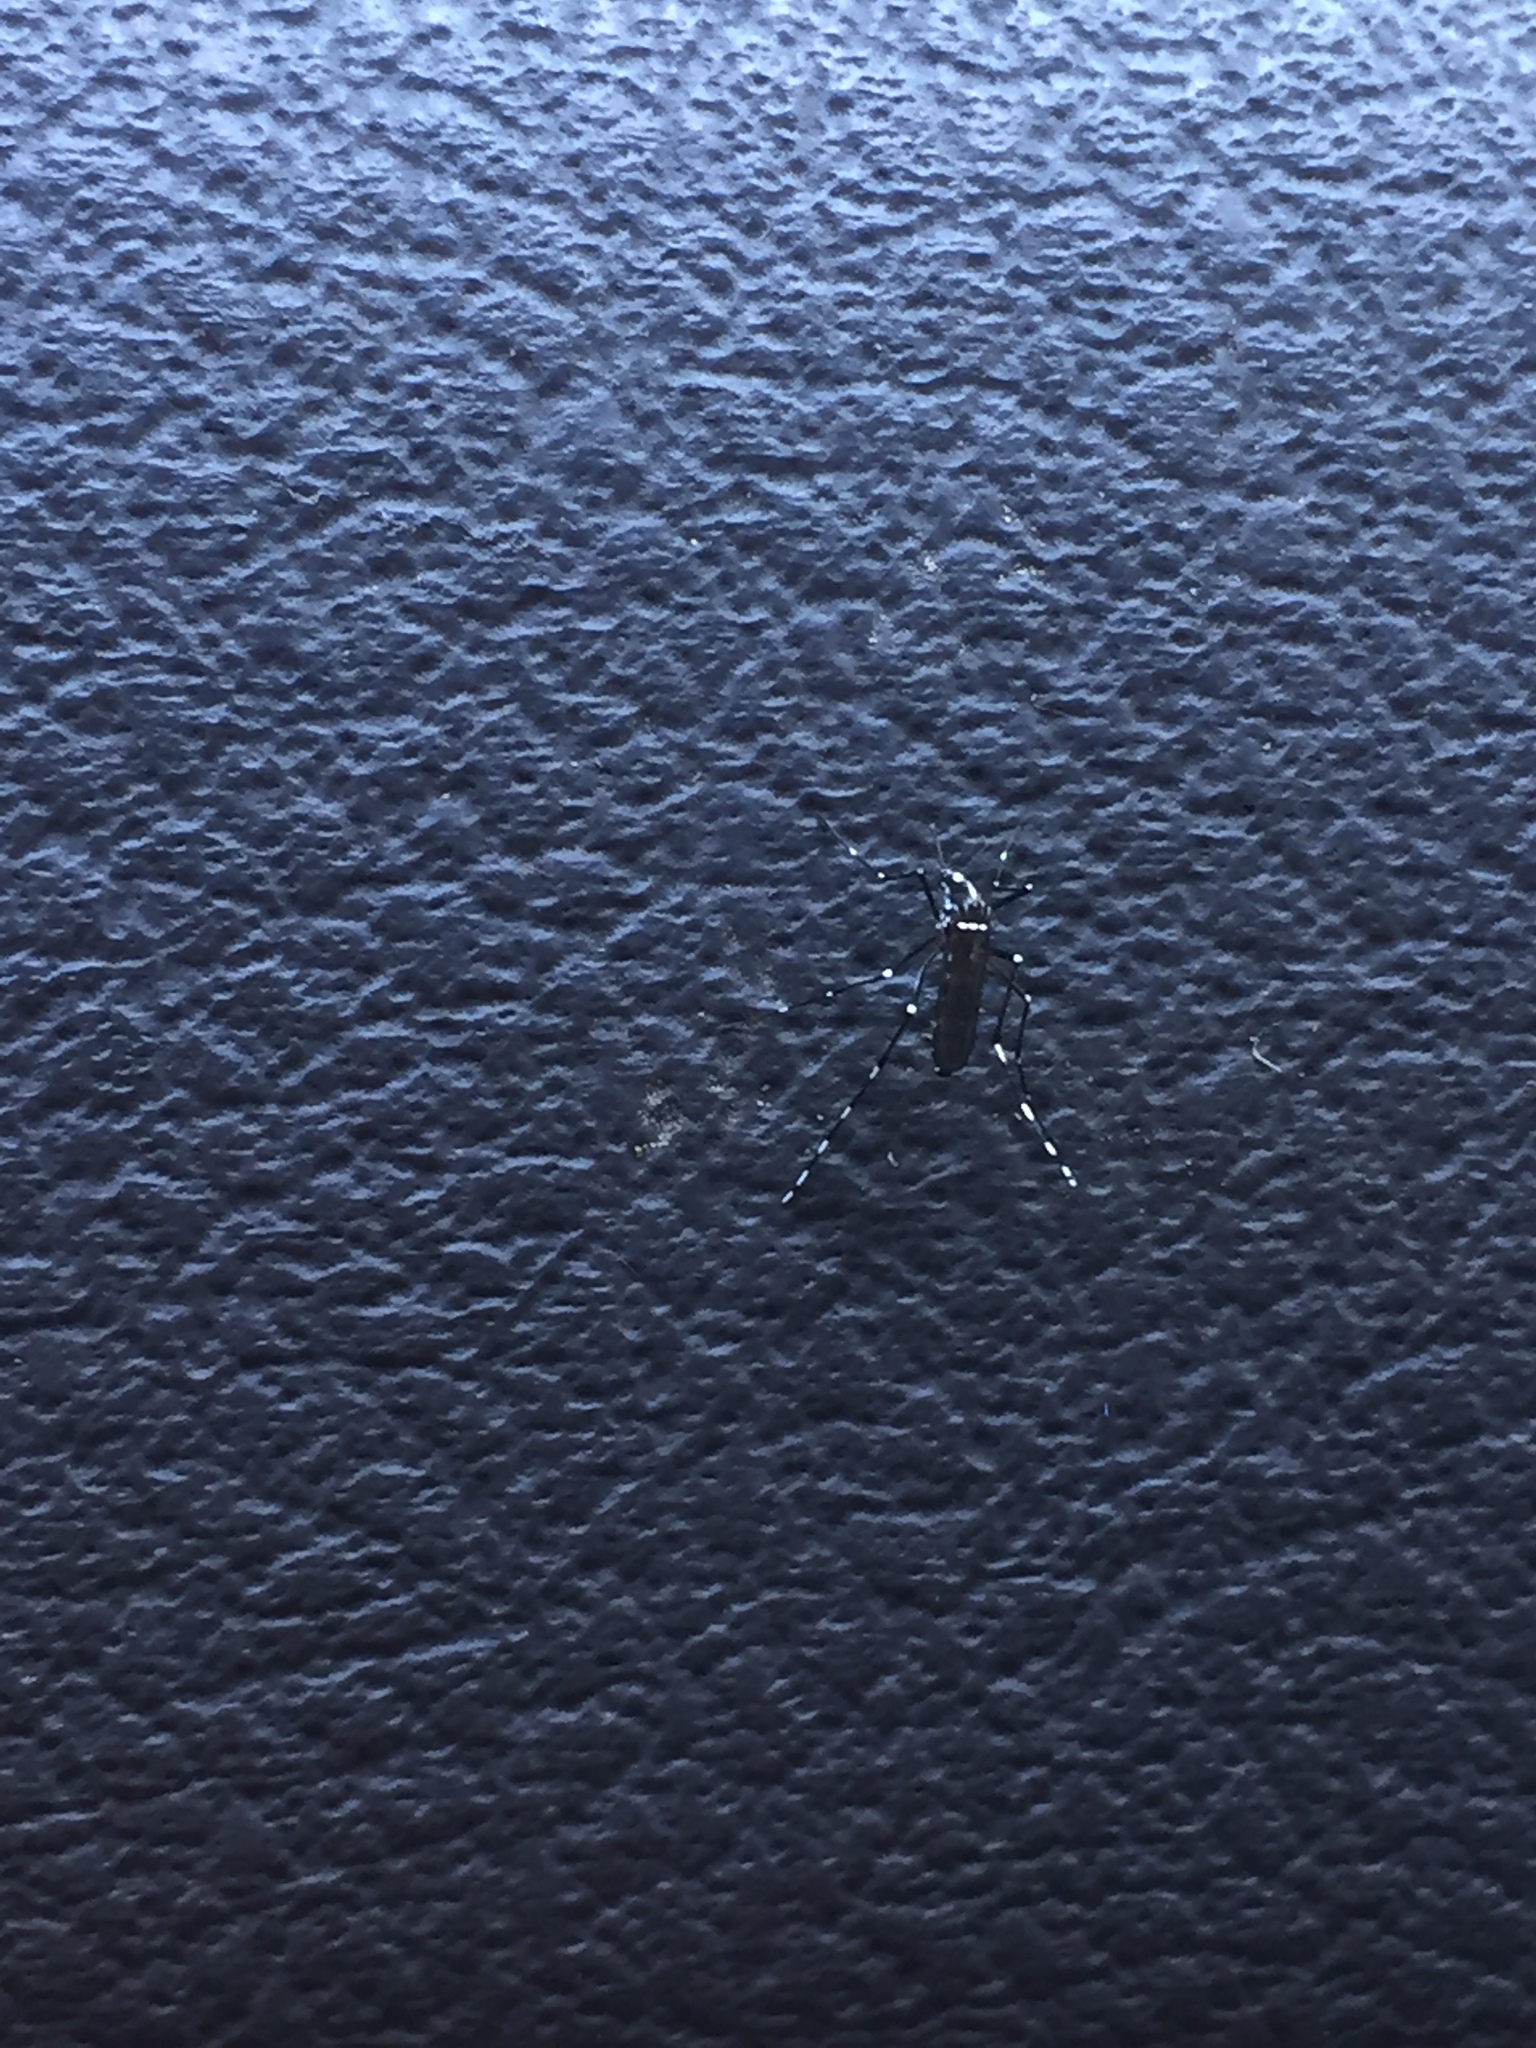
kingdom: Animalia
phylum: Arthropoda
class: Insecta
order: Diptera
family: Culicidae
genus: Aedes
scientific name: Aedes albopictus
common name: Tiger mosquito
